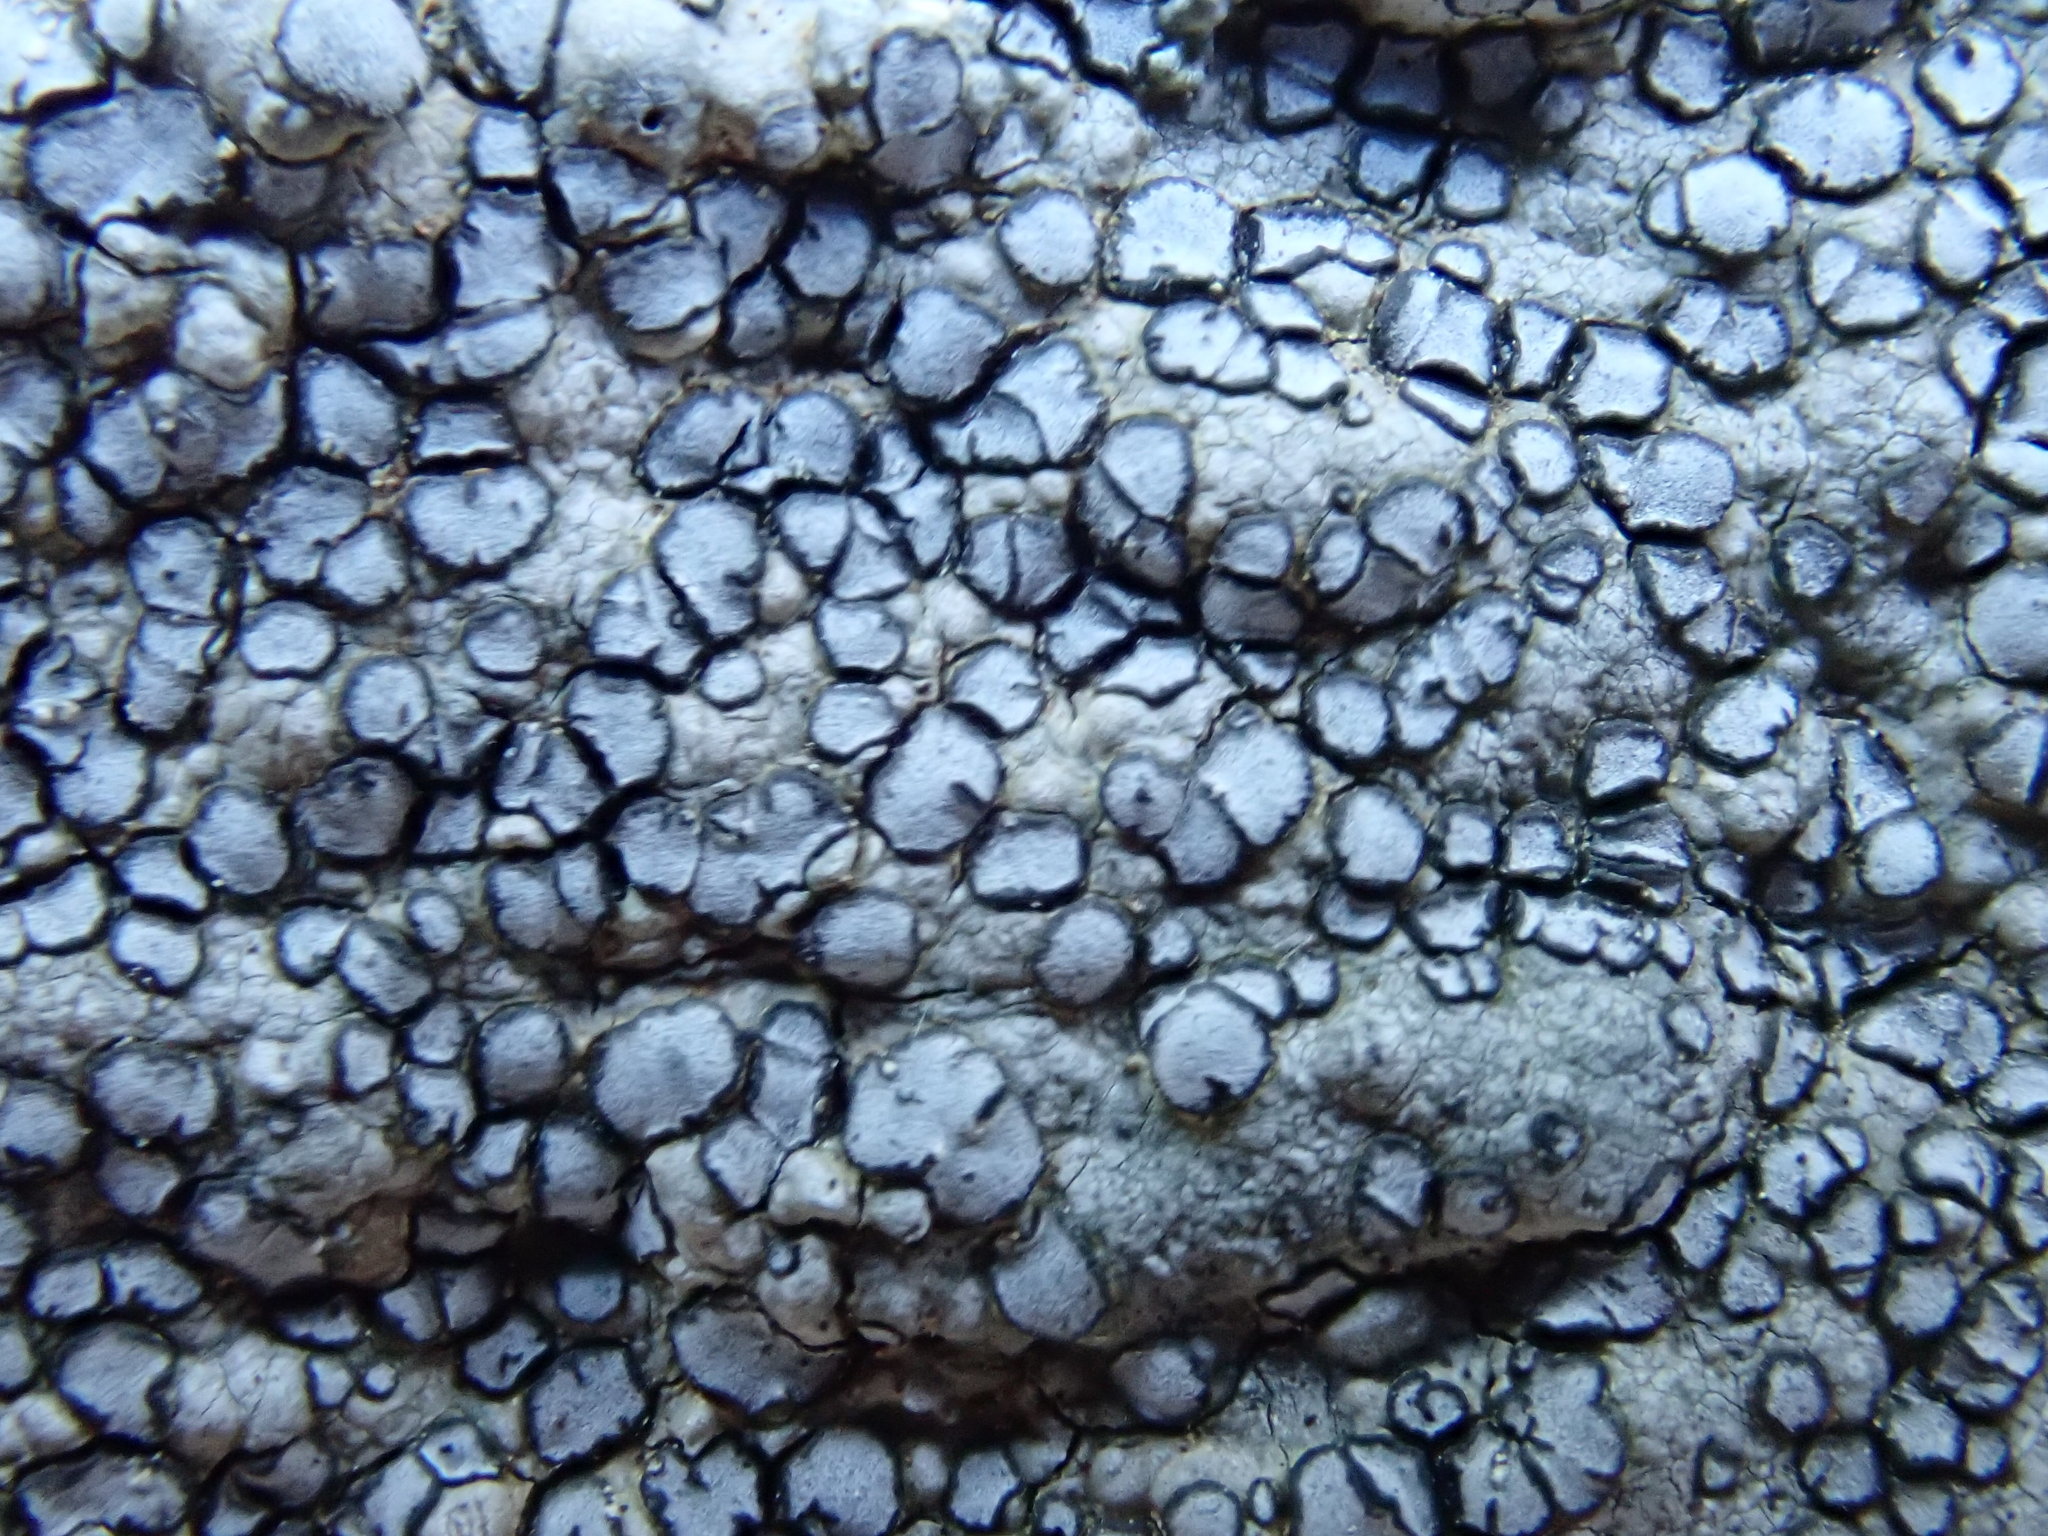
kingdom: Fungi
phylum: Ascomycota
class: Lecanoromycetes
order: Lecideales
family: Lecideaceae
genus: Porpidia
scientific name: Porpidia albocaerulescens
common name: Smokey-eyed boulder lichen
